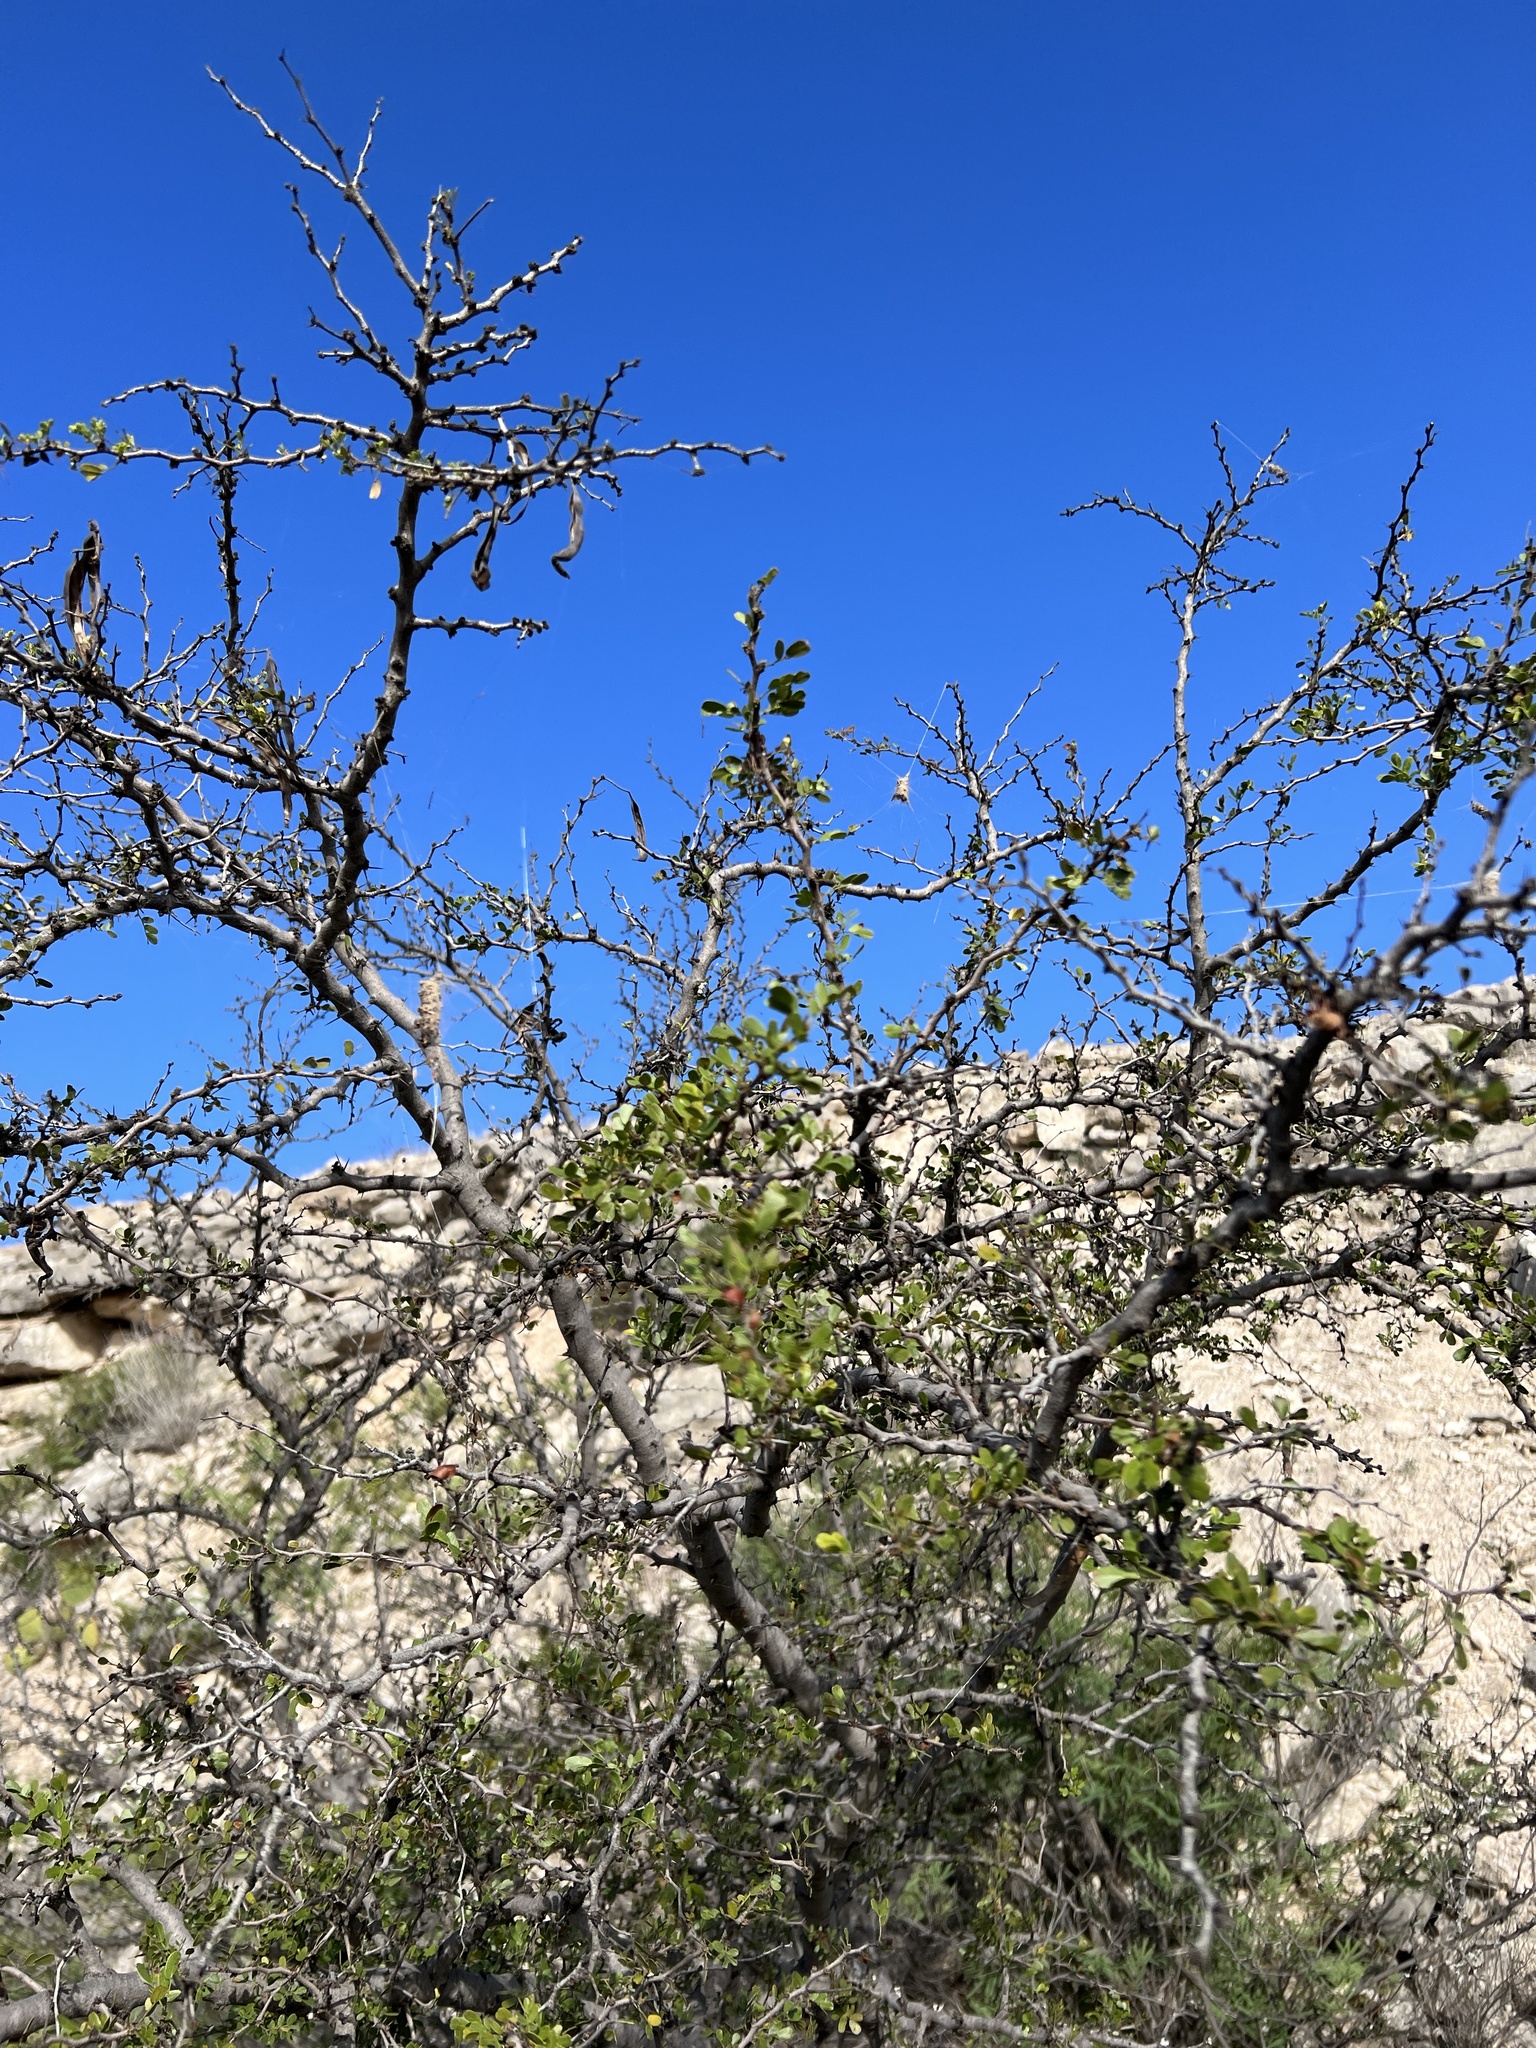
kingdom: Plantae
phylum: Tracheophyta
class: Magnoliopsida
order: Fabales
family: Fabaceae
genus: Vachellia
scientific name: Vachellia rigidula
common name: Blackbrush
